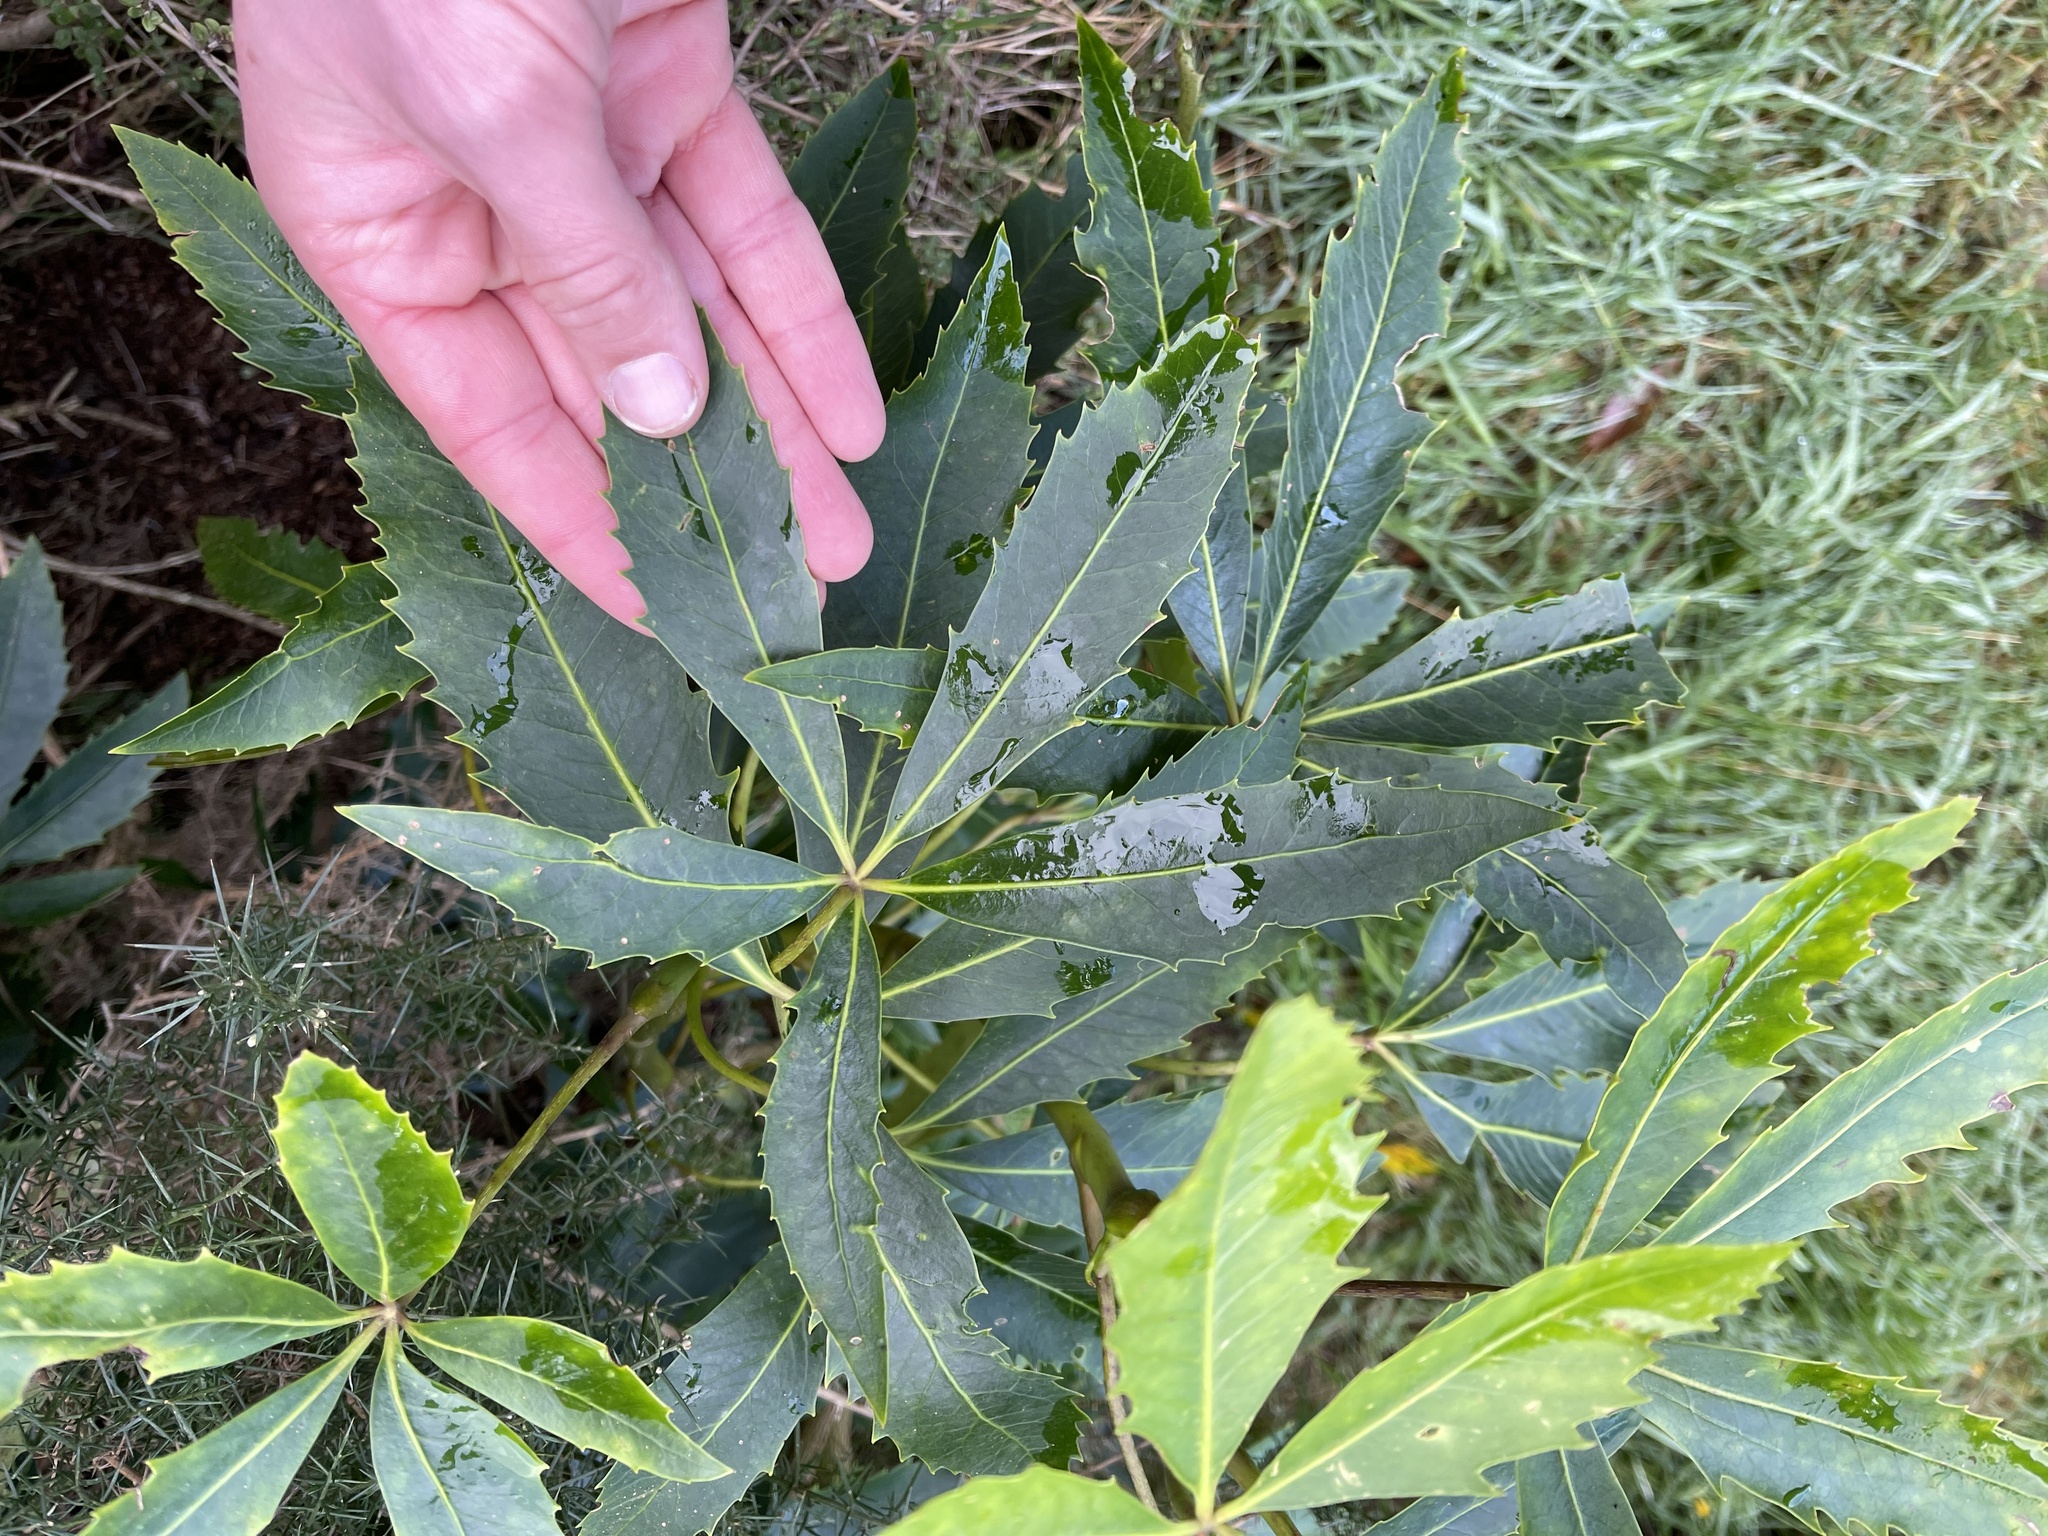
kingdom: Plantae
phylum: Tracheophyta
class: Magnoliopsida
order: Apiales
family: Araliaceae
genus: Neopanax
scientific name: Neopanax colensoi
